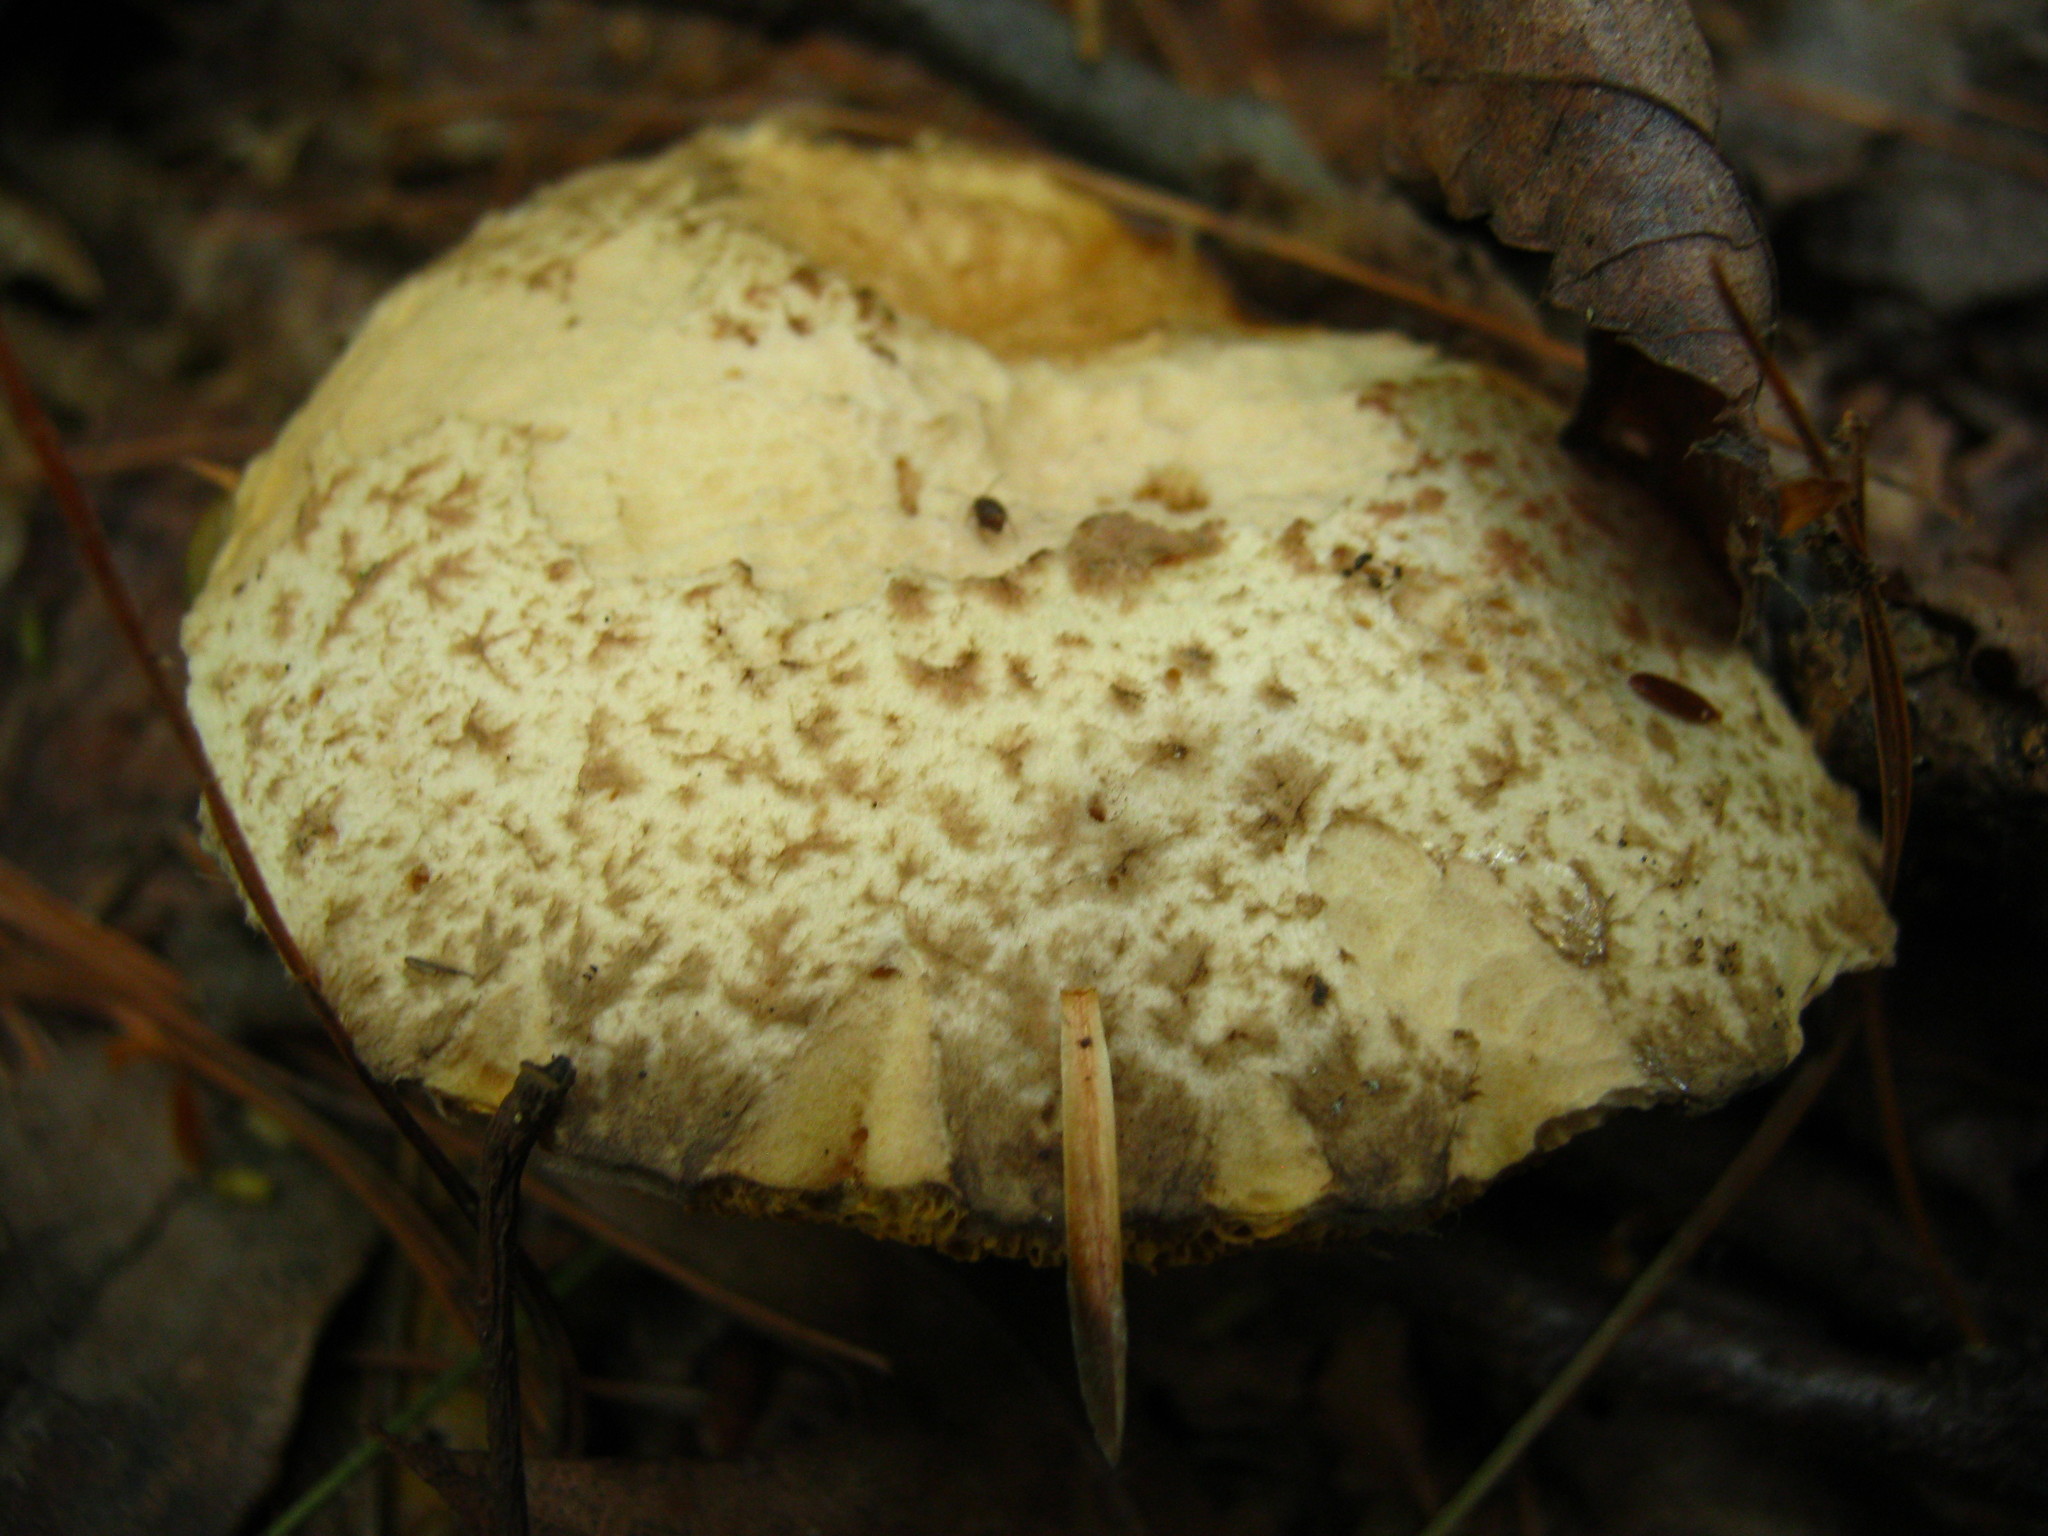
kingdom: Fungi
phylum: Basidiomycota
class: Agaricomycetes
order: Boletales
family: Suillaceae
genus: Suillus
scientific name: Suillus americanus
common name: Chicken fat mushroom
